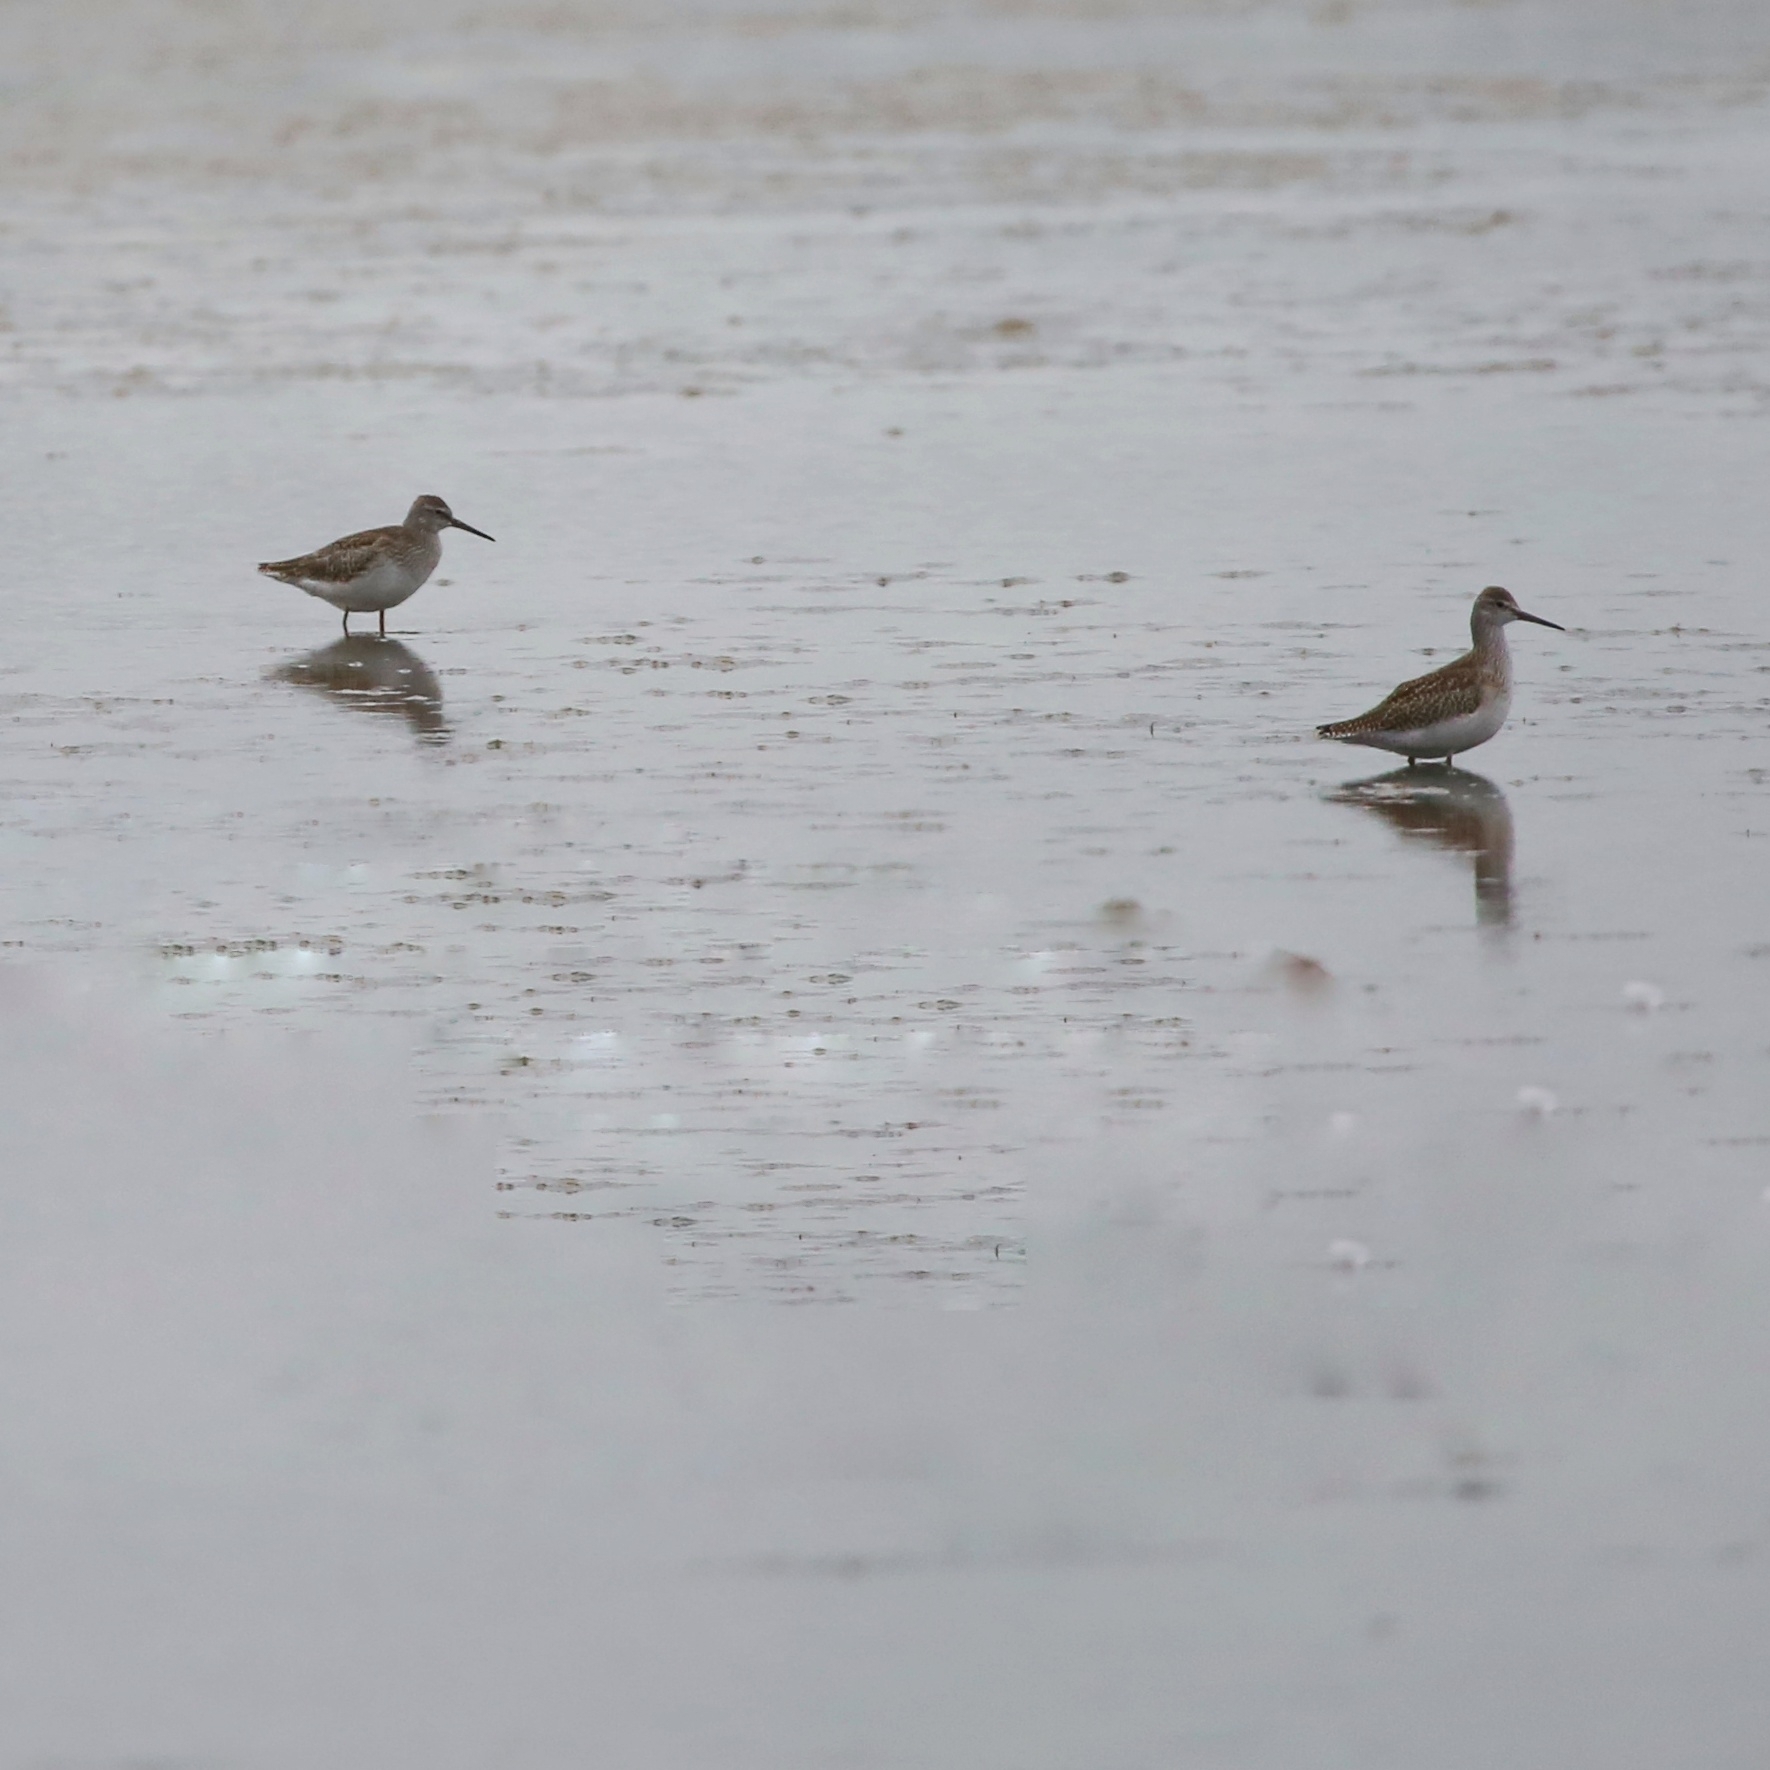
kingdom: Animalia
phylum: Chordata
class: Aves
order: Charadriiformes
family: Scolopacidae
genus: Tringa
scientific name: Tringa totanus
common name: Common redshank
